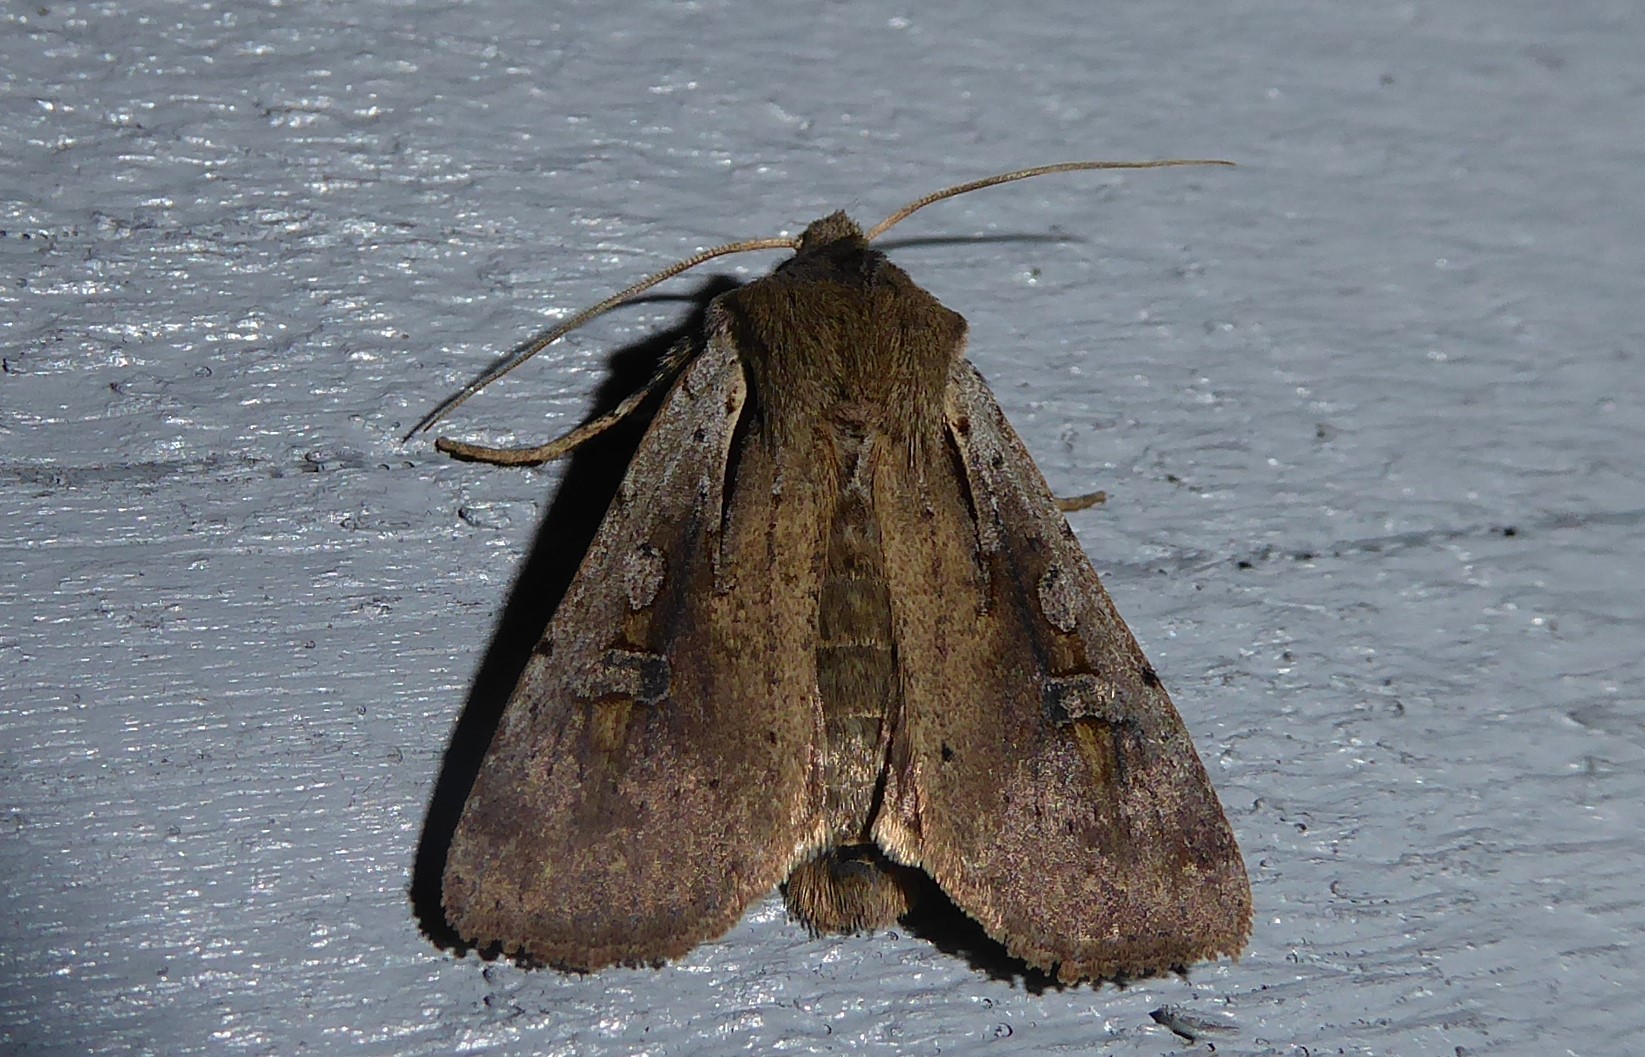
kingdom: Animalia
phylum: Arthropoda
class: Insecta
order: Lepidoptera
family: Noctuidae
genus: Ichneutica
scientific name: Ichneutica atristriga
